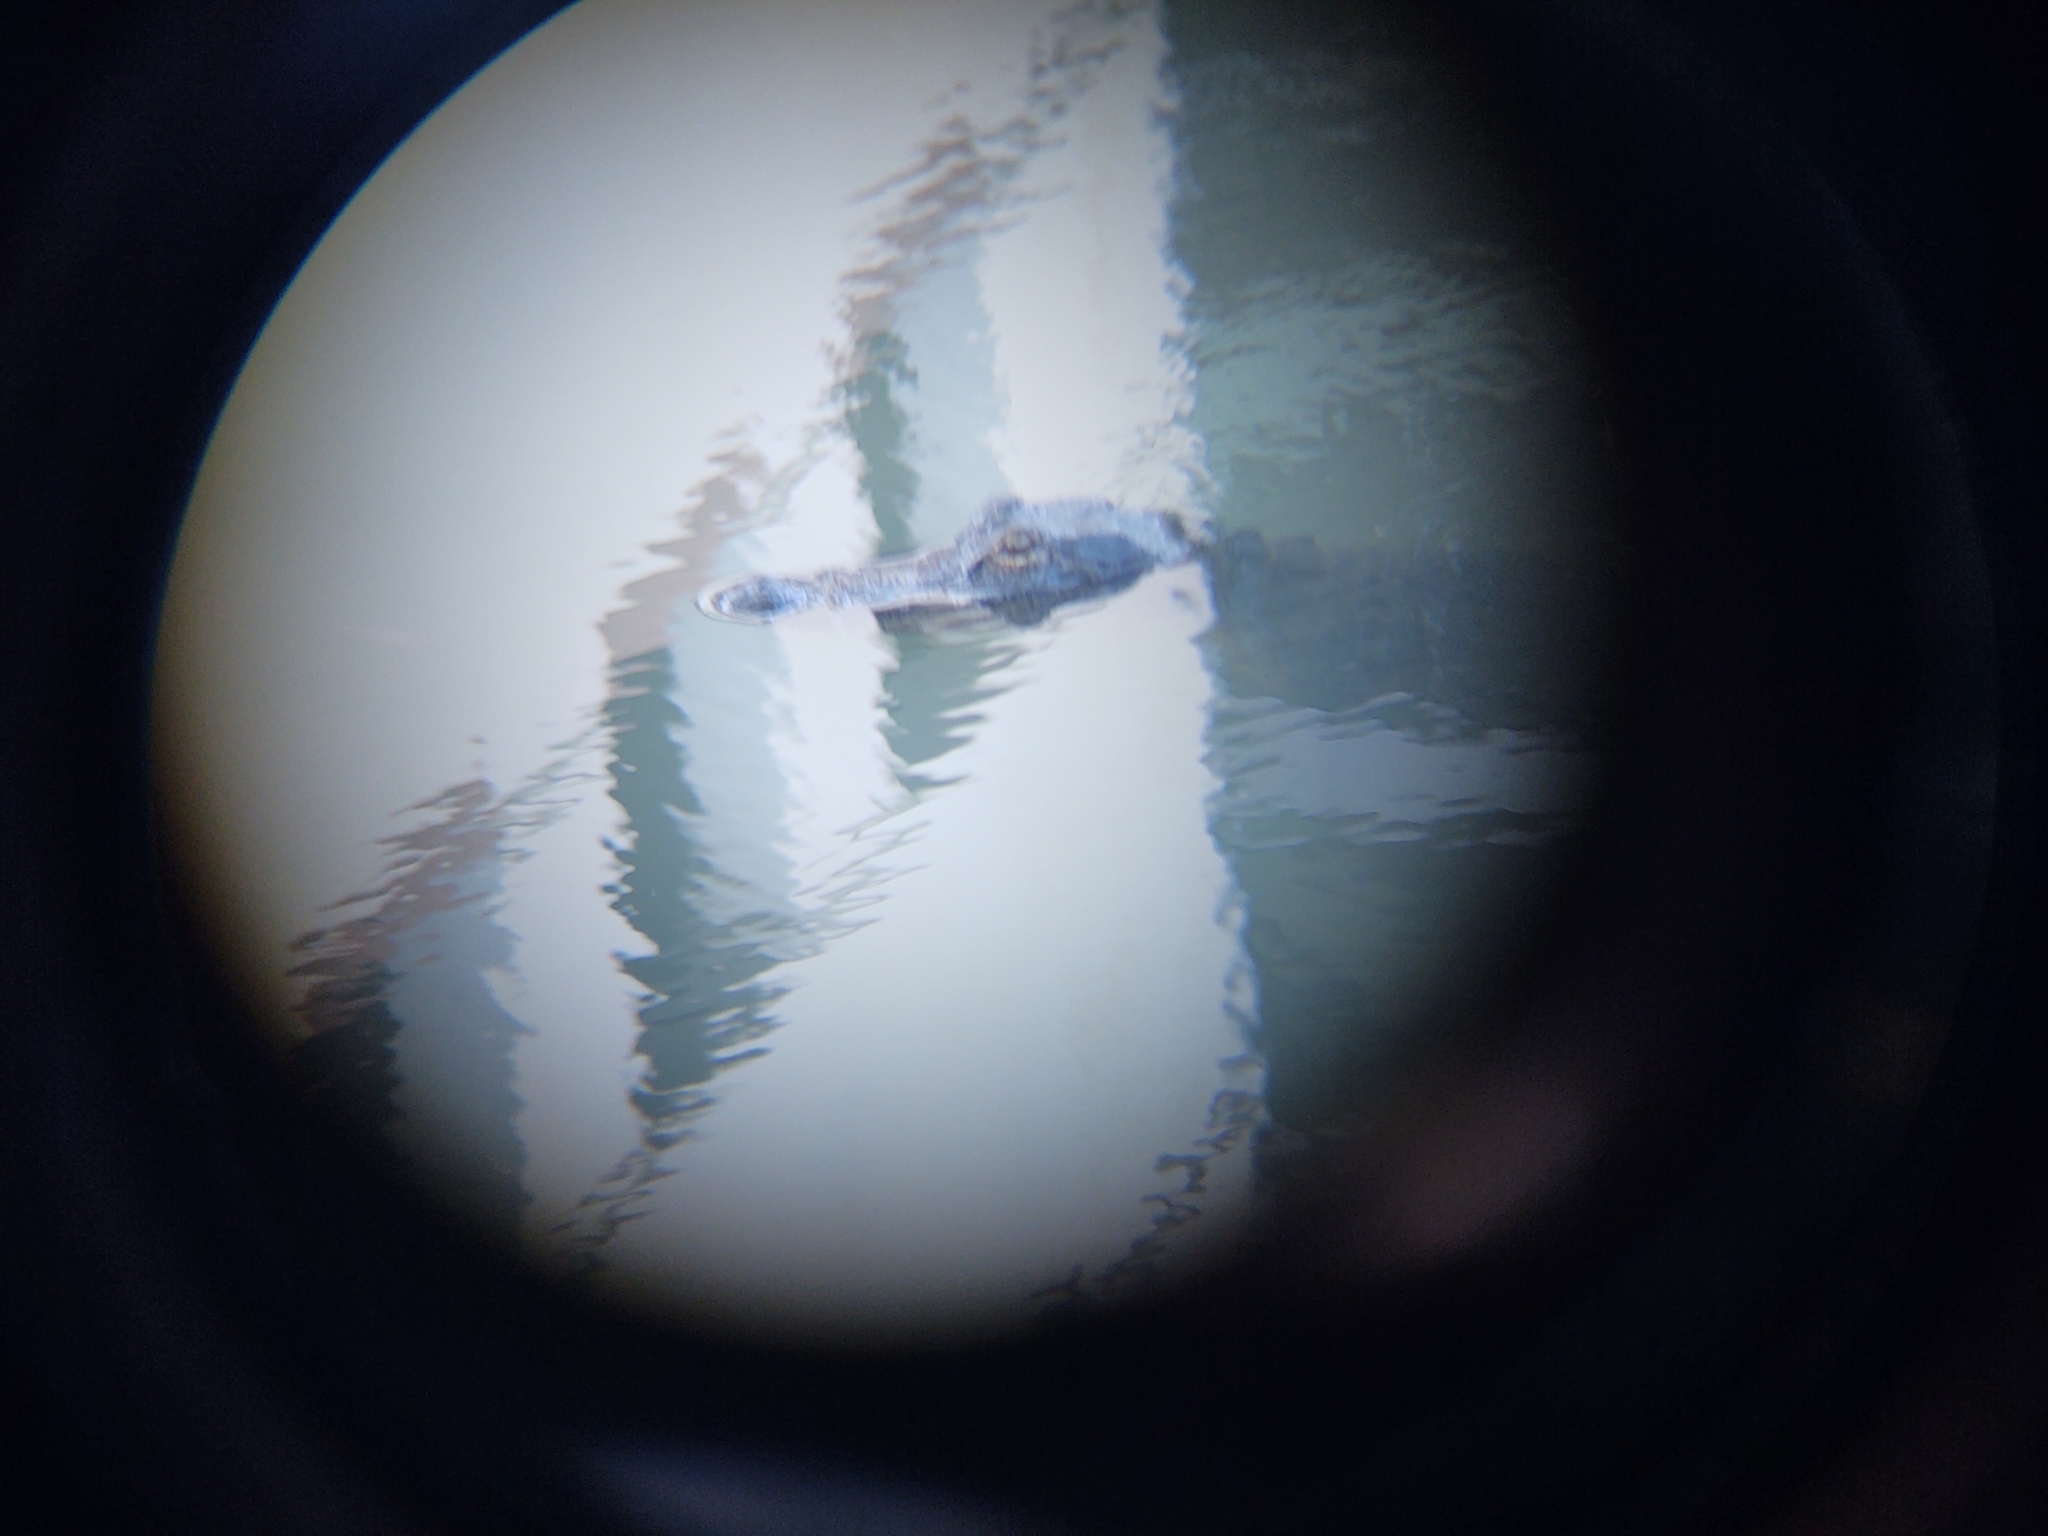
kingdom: Animalia
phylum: Chordata
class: Crocodylia
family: Alligatoridae
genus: Alligator
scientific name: Alligator mississippiensis
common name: American alligator
